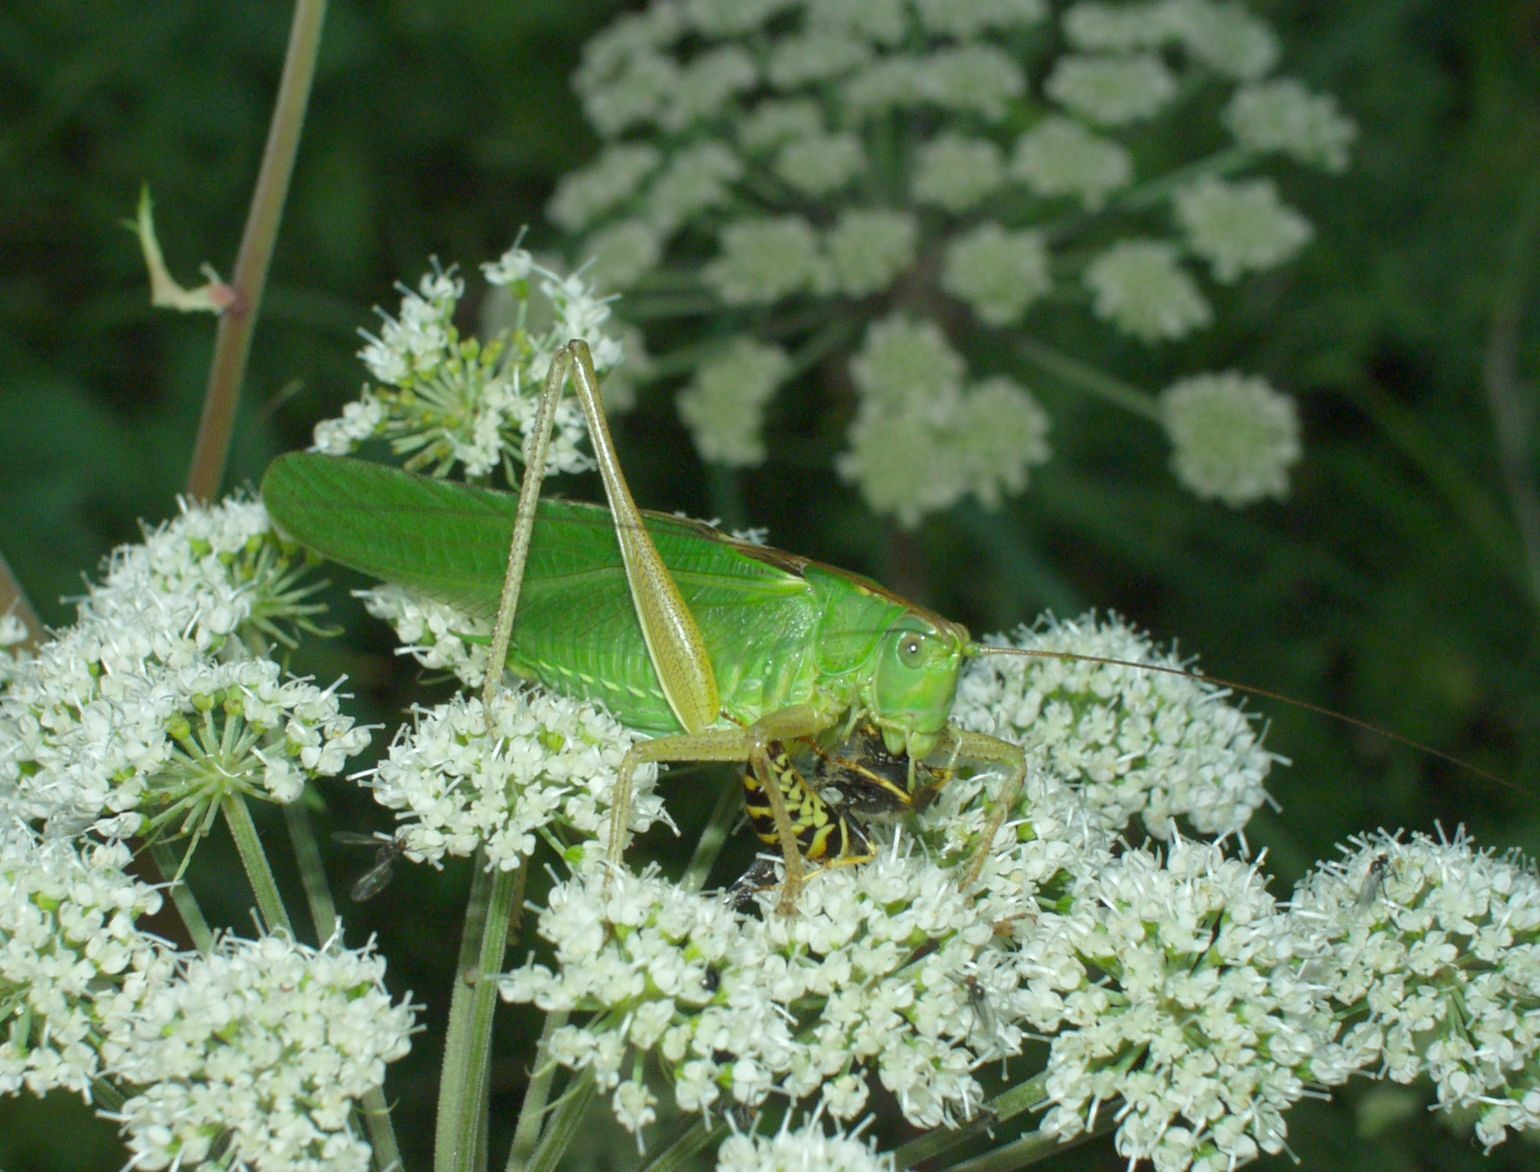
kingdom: Animalia
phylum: Arthropoda
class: Insecta
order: Orthoptera
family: Tettigoniidae
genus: Tettigonia
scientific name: Tettigonia viridissima
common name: Great green bush-cricket
